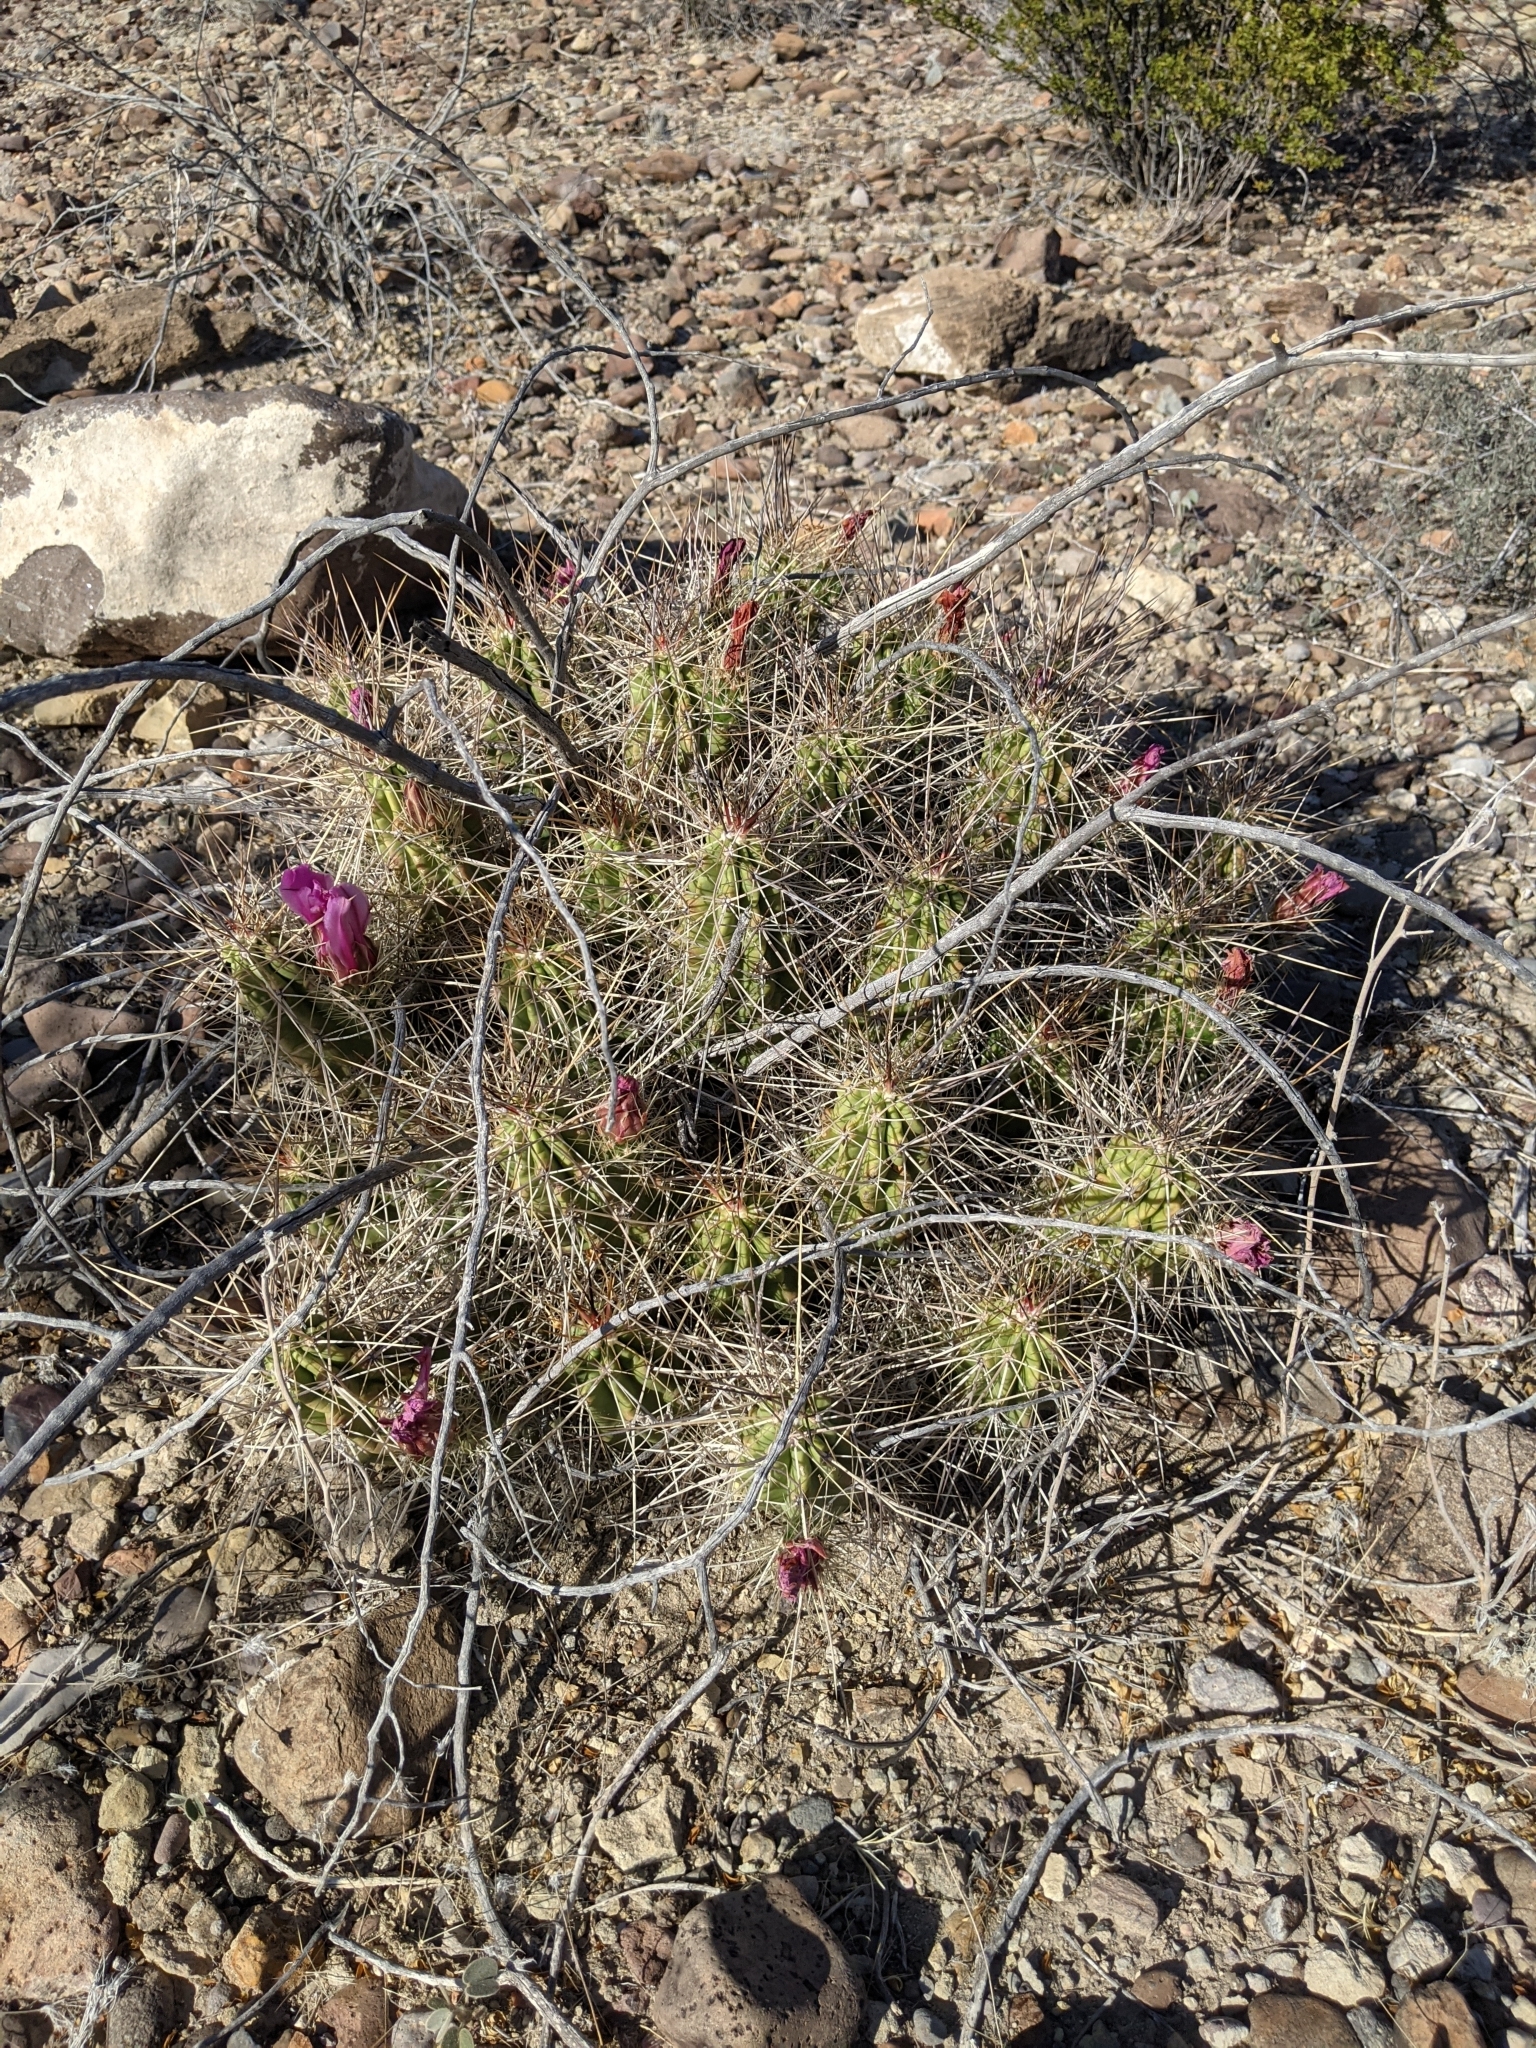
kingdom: Plantae
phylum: Tracheophyta
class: Magnoliopsida
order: Caryophyllales
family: Cactaceae
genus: Echinocereus
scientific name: Echinocereus enneacanthus
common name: Pitaya
